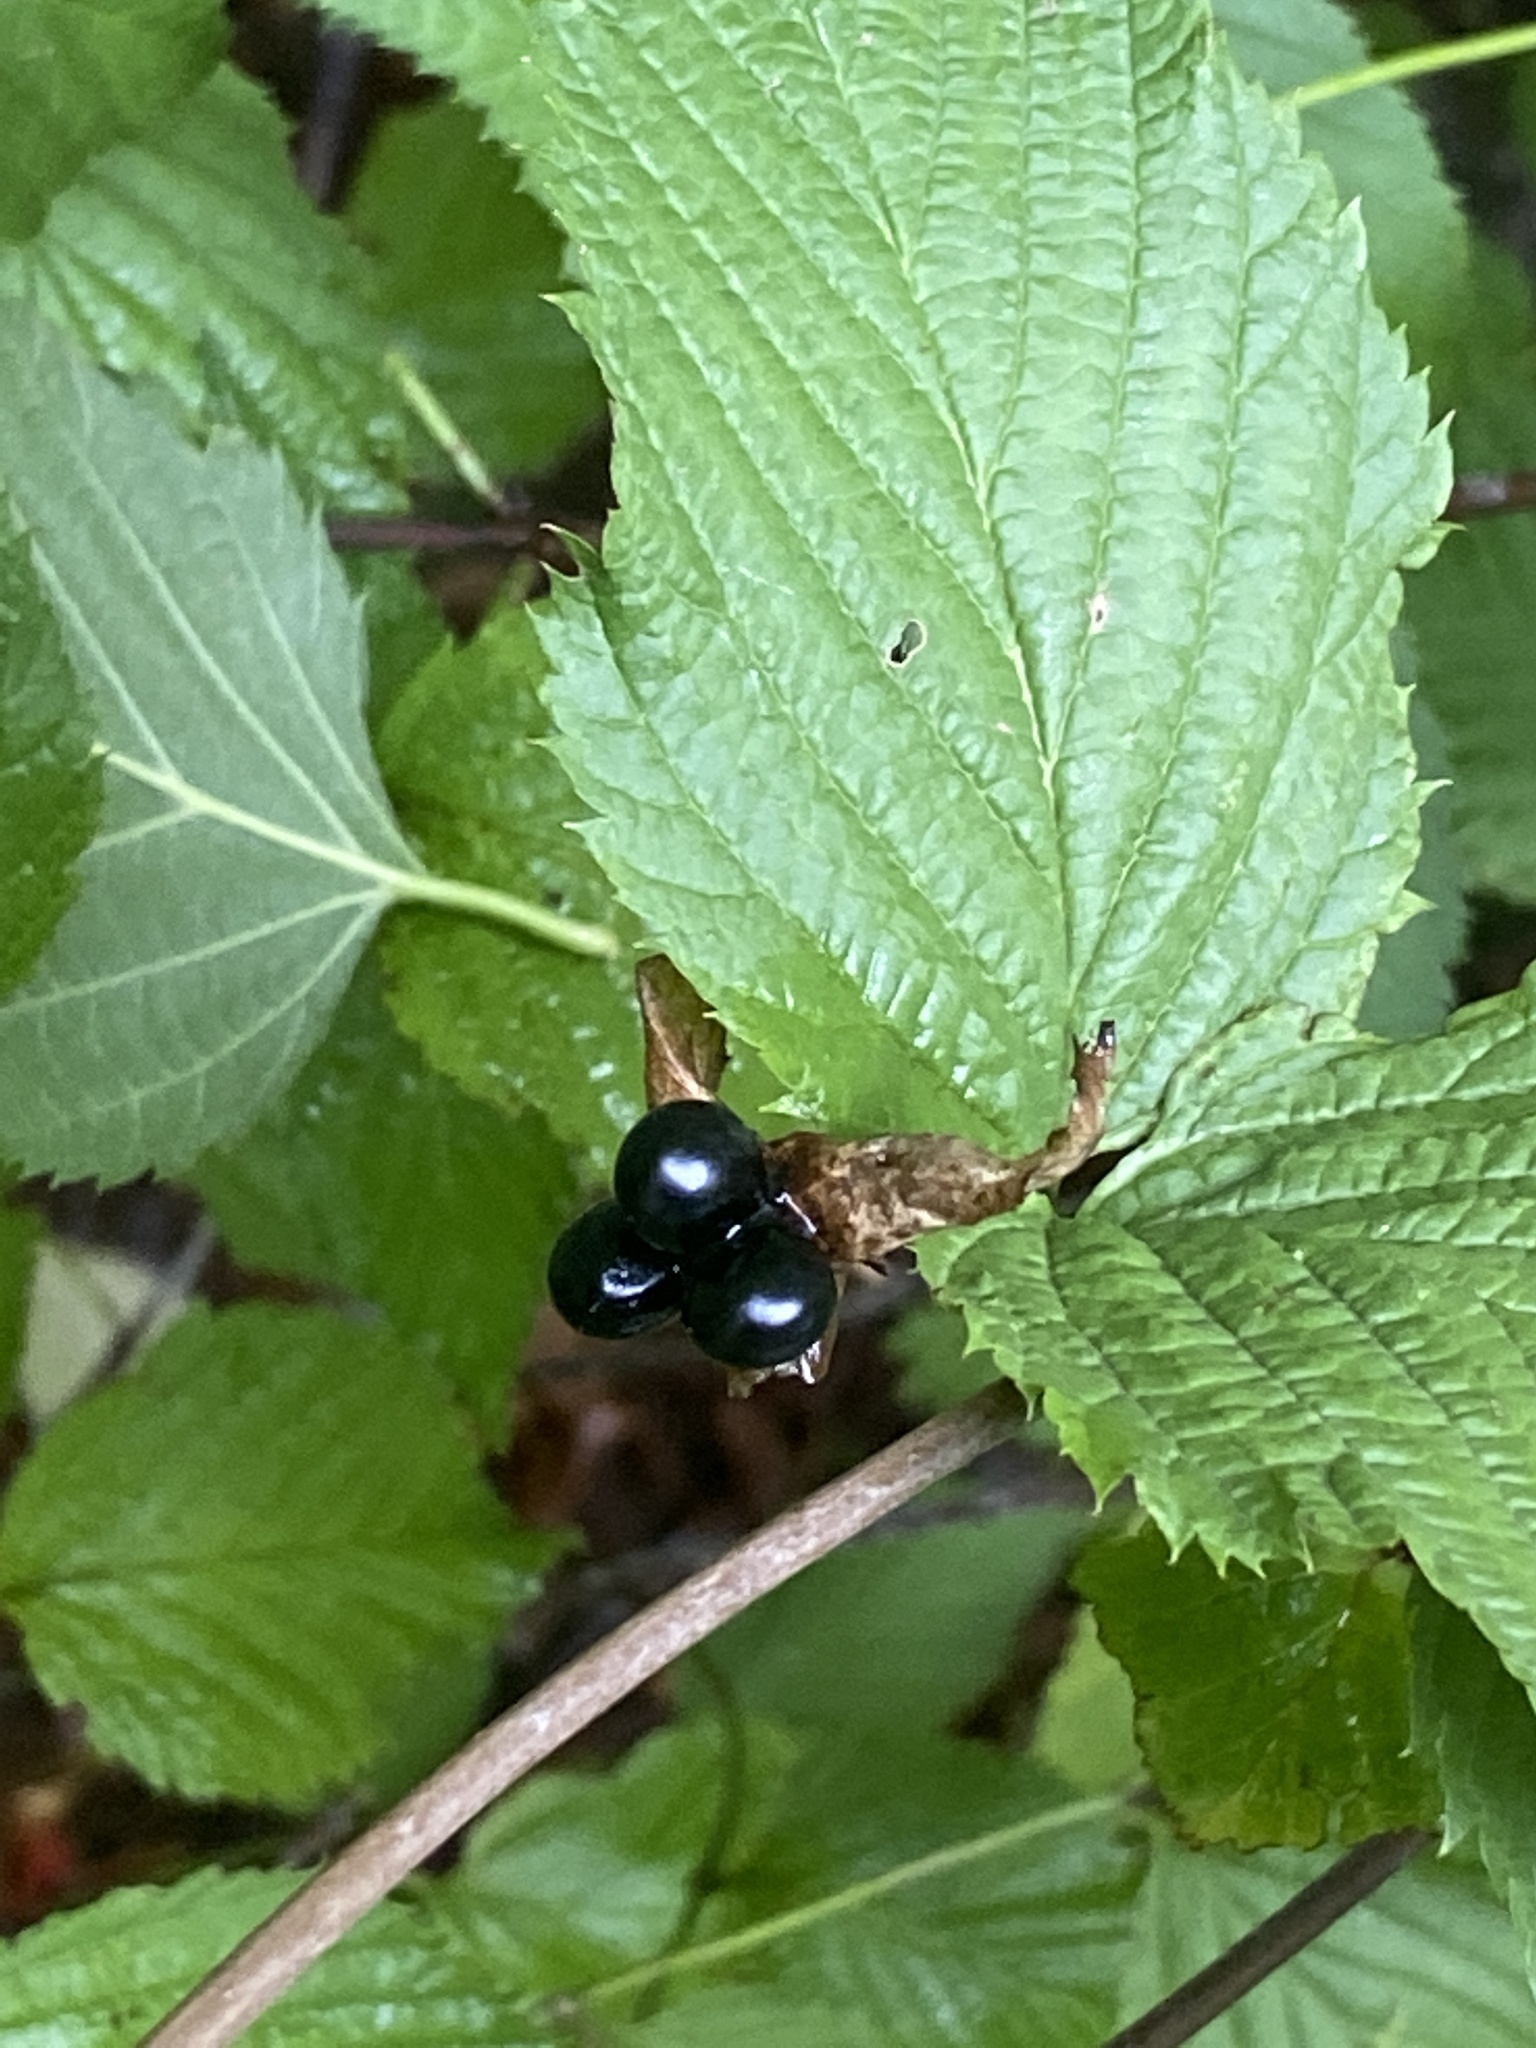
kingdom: Plantae
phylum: Tracheophyta
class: Magnoliopsida
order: Rosales
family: Rosaceae
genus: Rhodotypos
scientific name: Rhodotypos scandens
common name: Jetbead
